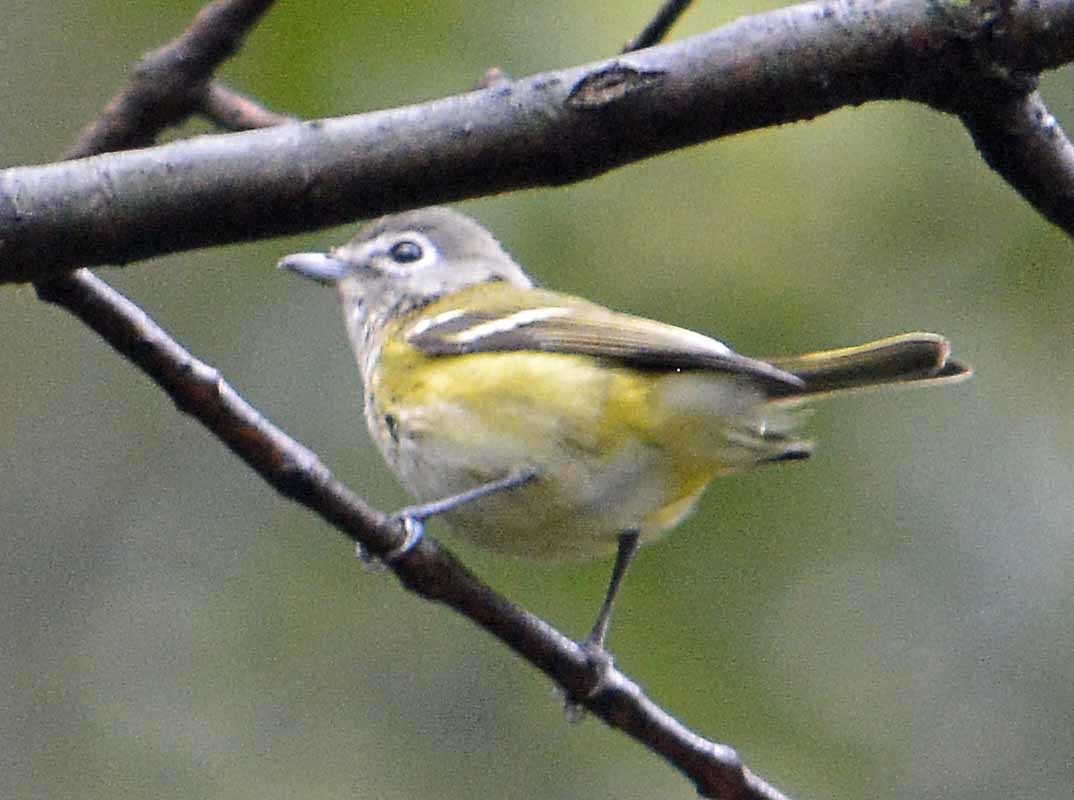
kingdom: Animalia
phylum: Chordata
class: Aves
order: Passeriformes
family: Vireonidae
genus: Vireo
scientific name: Vireo solitarius
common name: Blue-headed vireo
